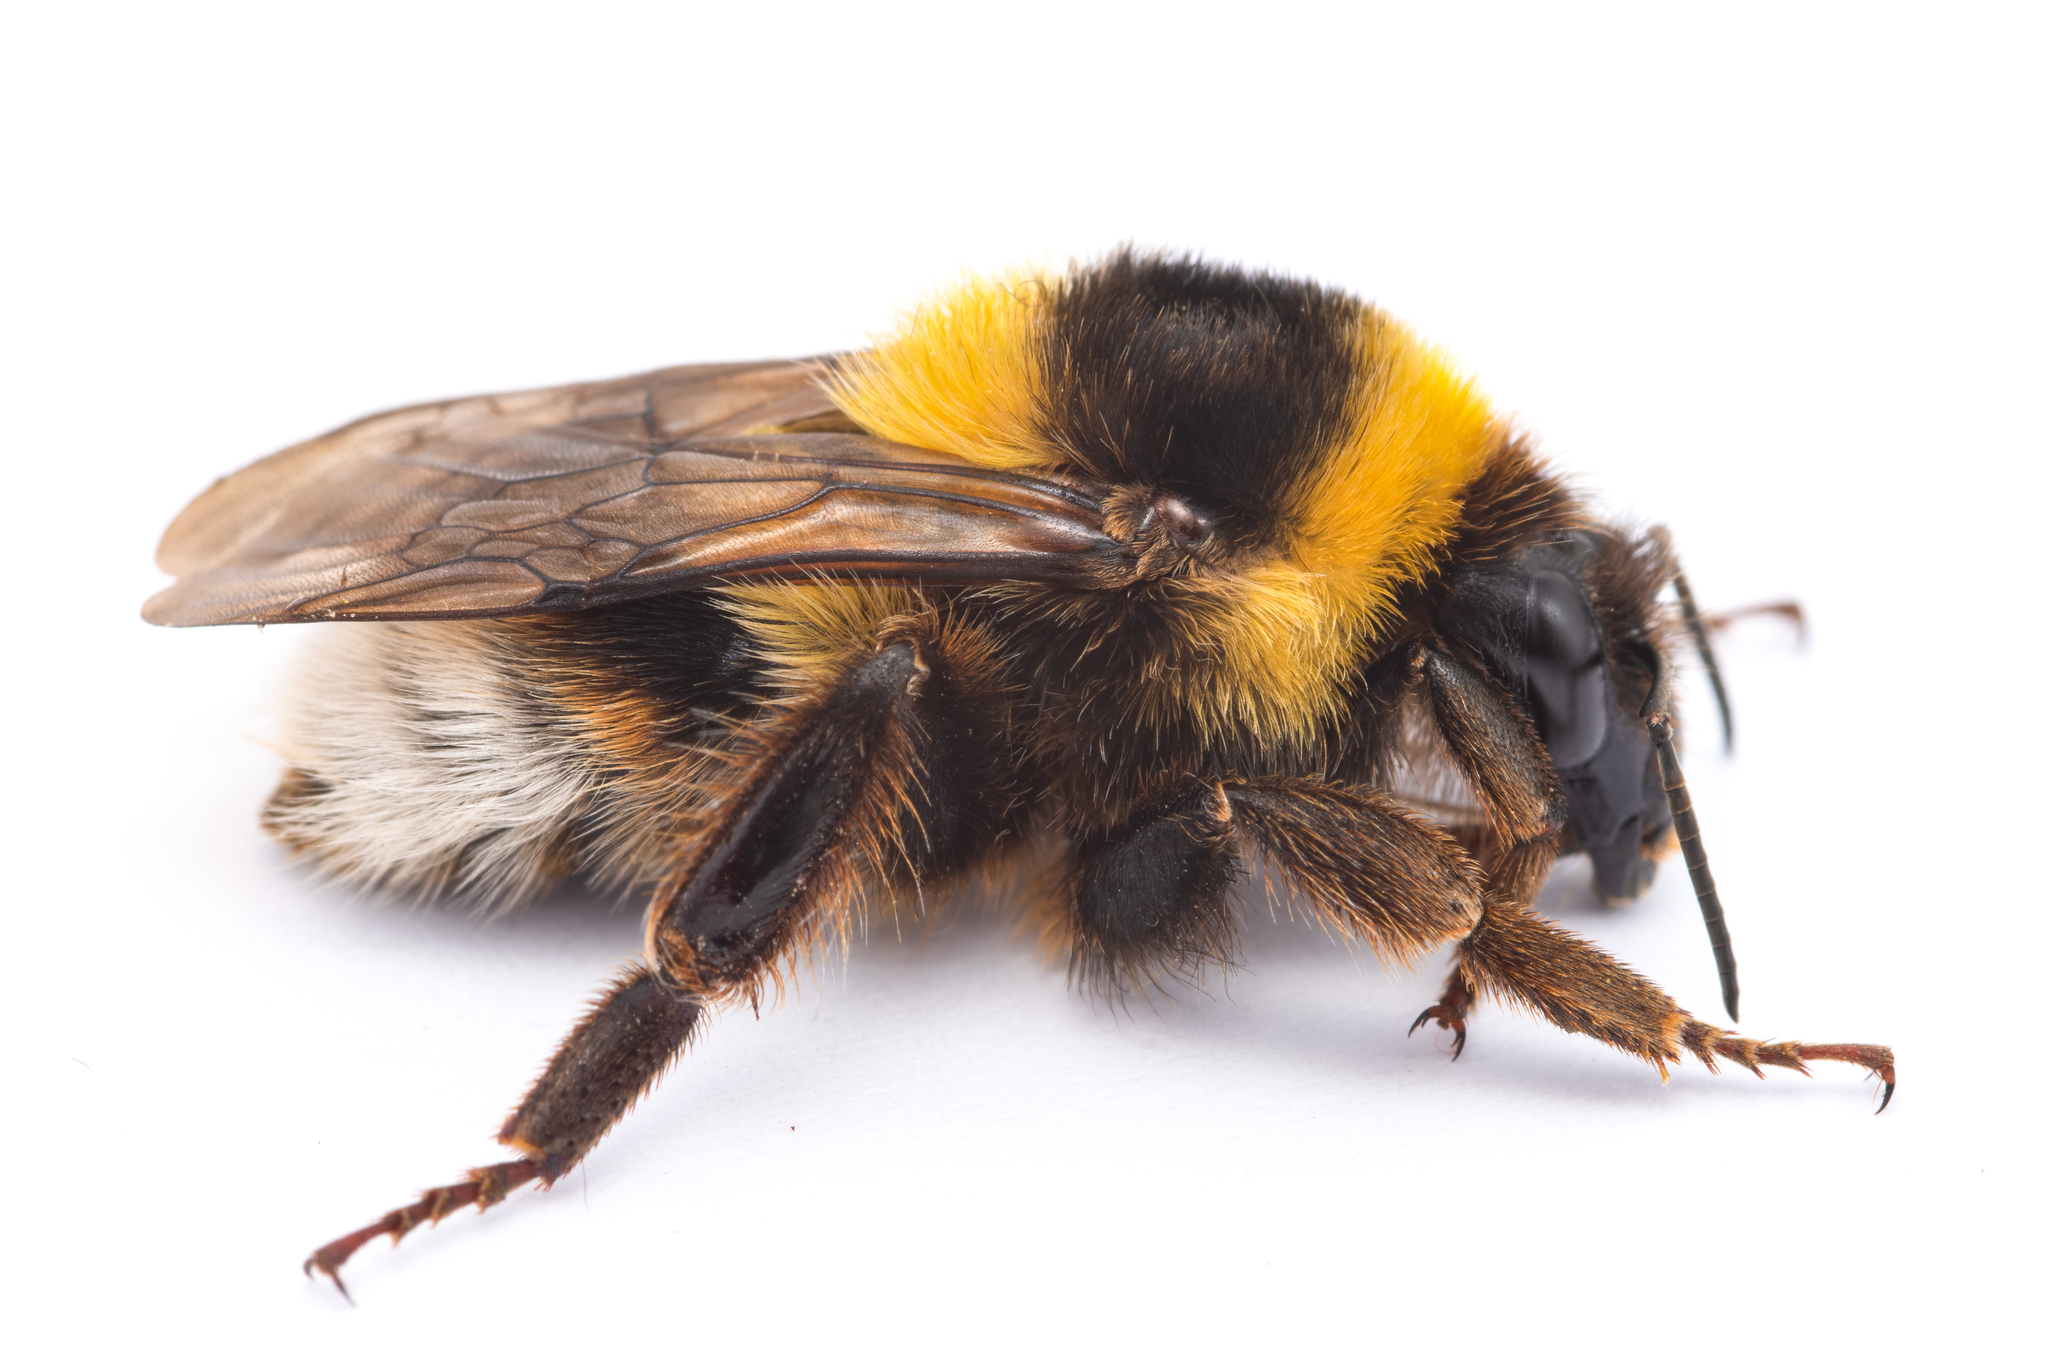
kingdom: Animalia
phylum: Arthropoda
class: Insecta
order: Hymenoptera
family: Apidae
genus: Bombus
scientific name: Bombus ruderatus
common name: Large garden bumblebee
